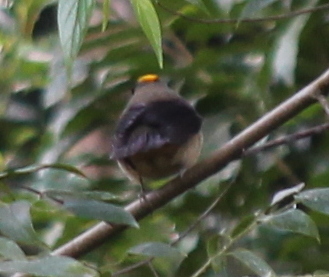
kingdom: Animalia
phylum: Chordata
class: Aves
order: Passeriformes
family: Thraupidae
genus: Trichothraupis
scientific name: Trichothraupis melanops
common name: Black-goggled tanager
